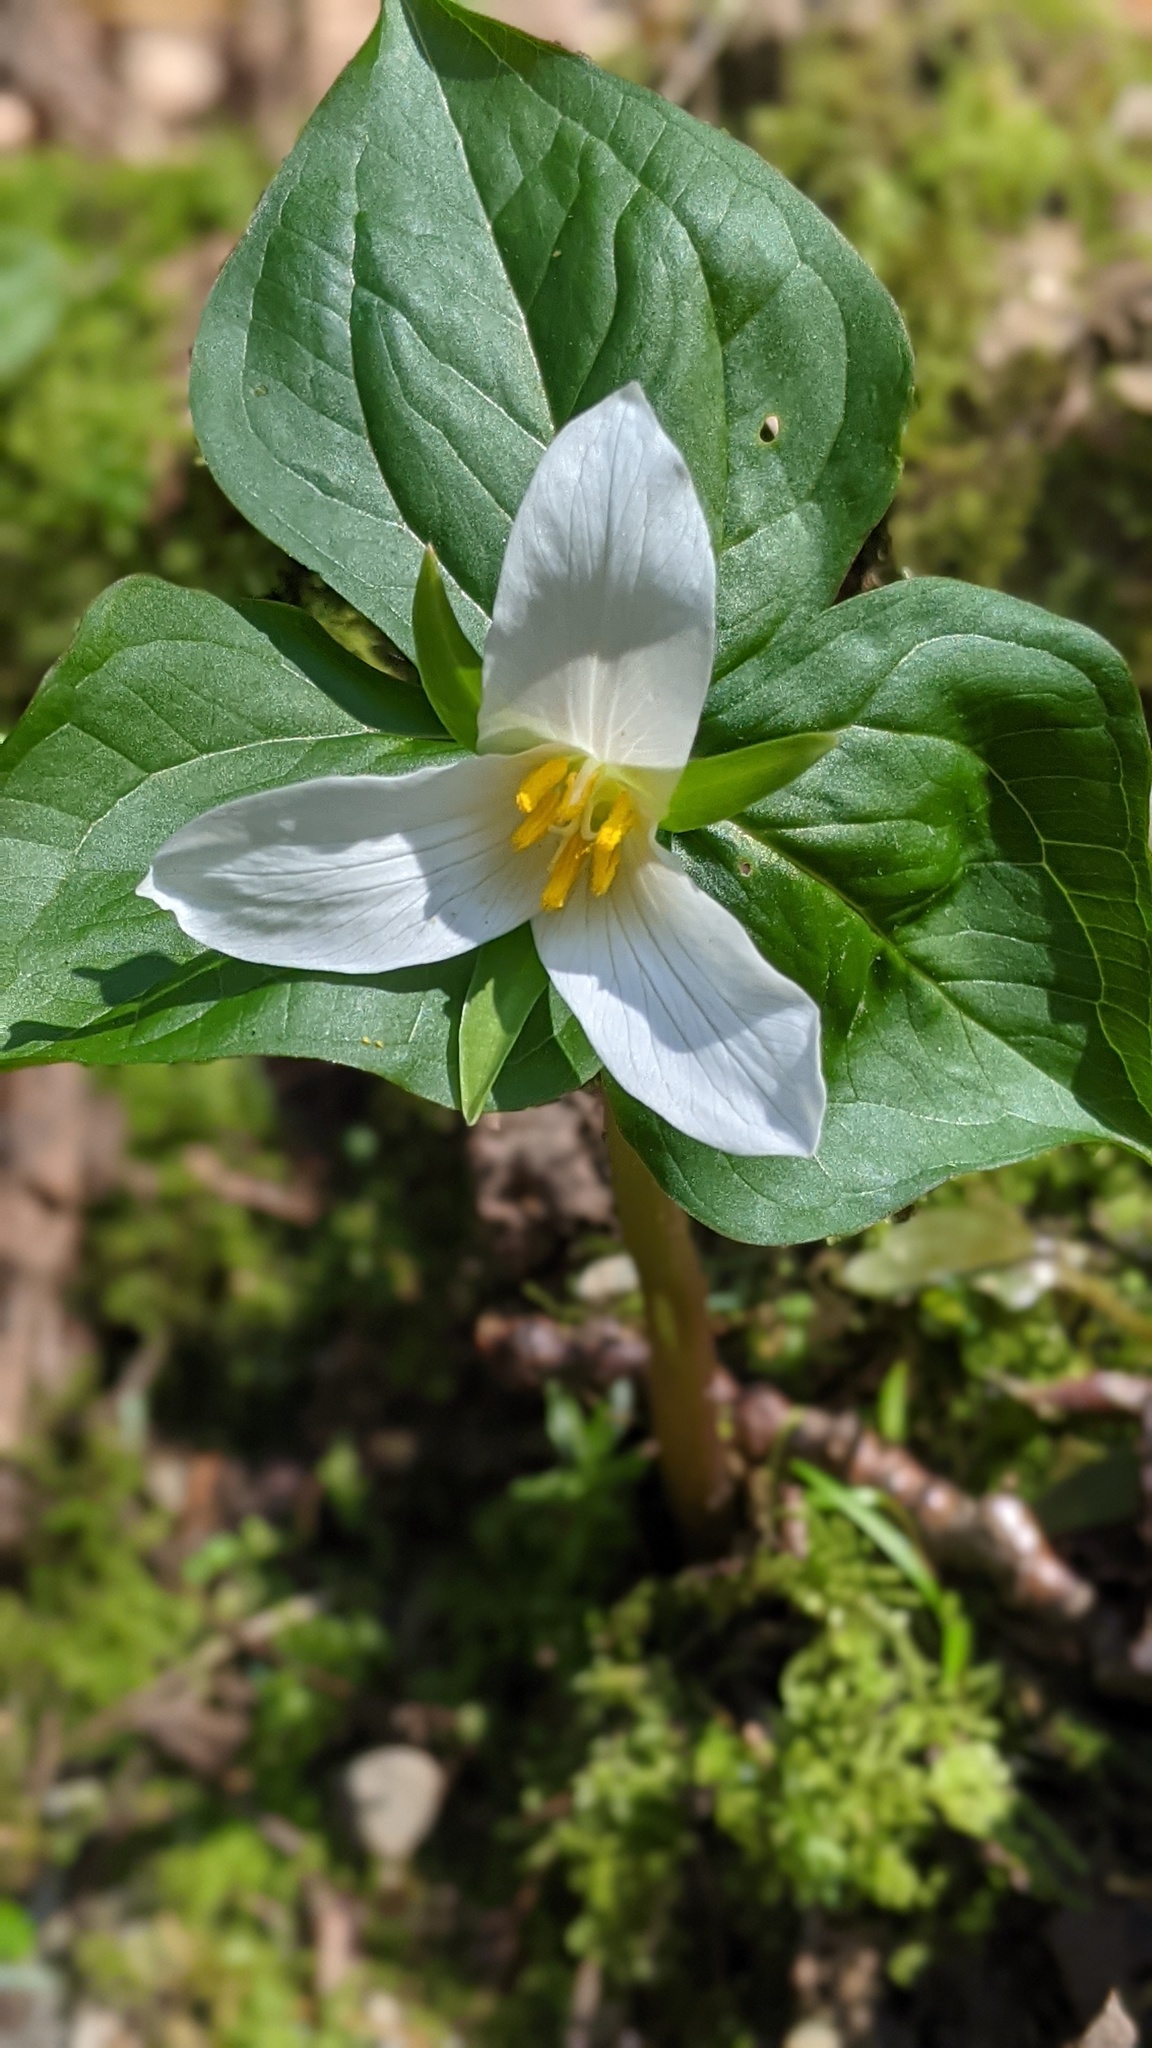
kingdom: Plantae
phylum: Tracheophyta
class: Liliopsida
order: Liliales
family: Melanthiaceae
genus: Trillium
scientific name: Trillium ovatum
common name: Pacific trillium
